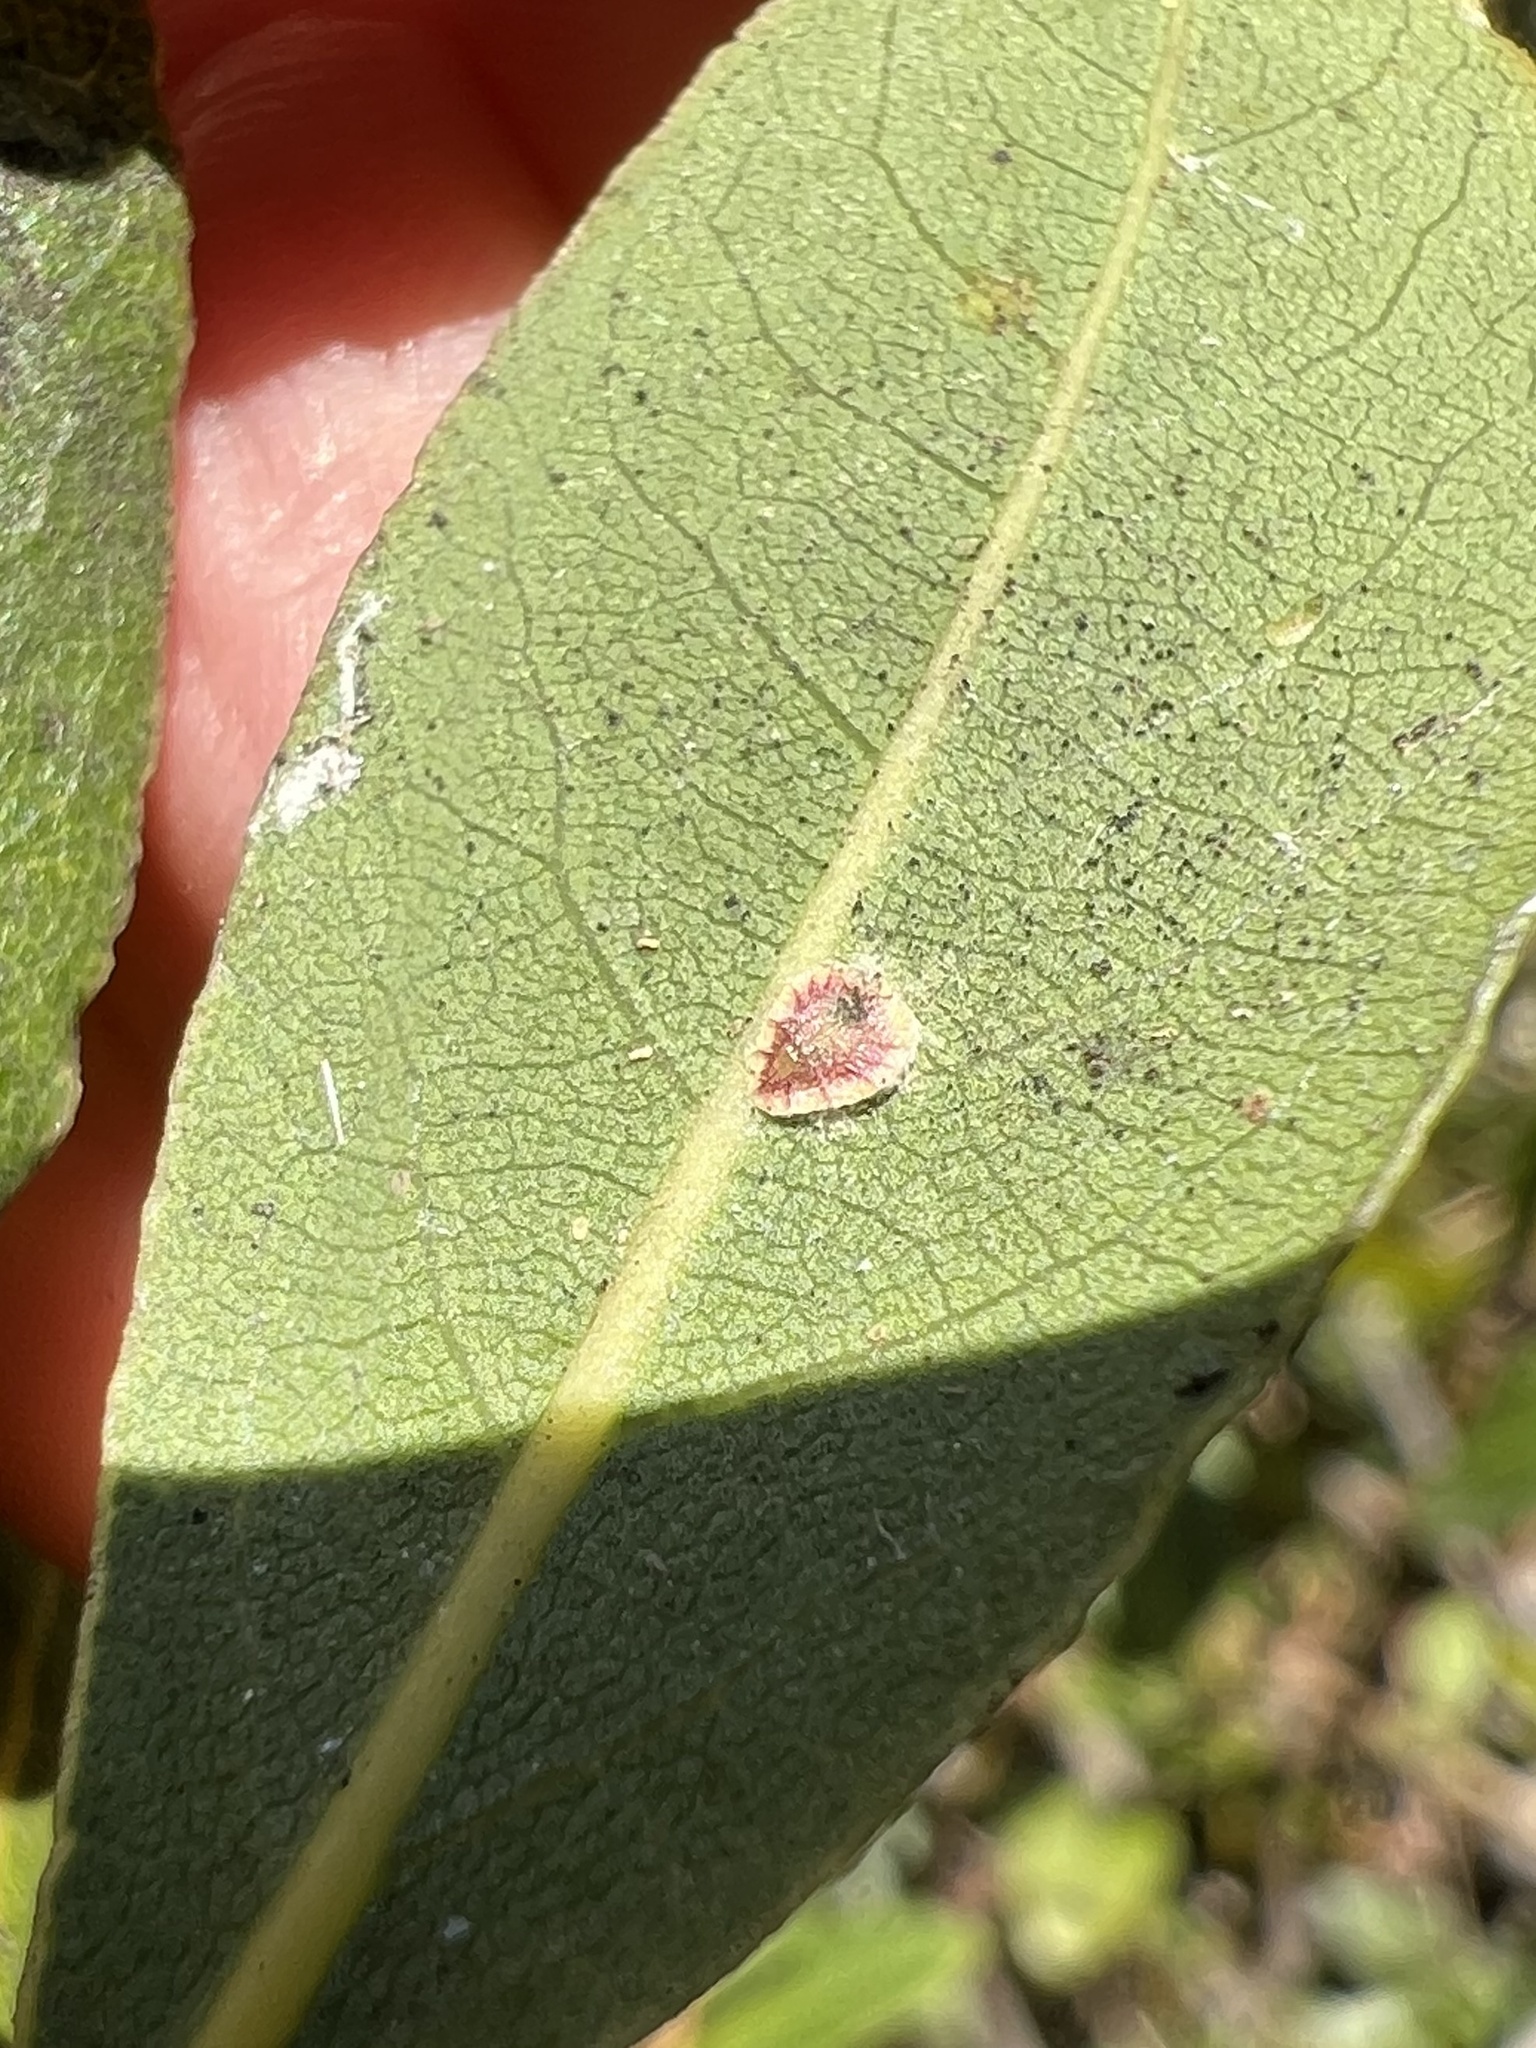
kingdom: Animalia
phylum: Arthropoda
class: Insecta
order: Hemiptera
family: Coccidae
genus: Protopulvinaria
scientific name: Protopulvinaria pyriformis
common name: Pyriform scale
